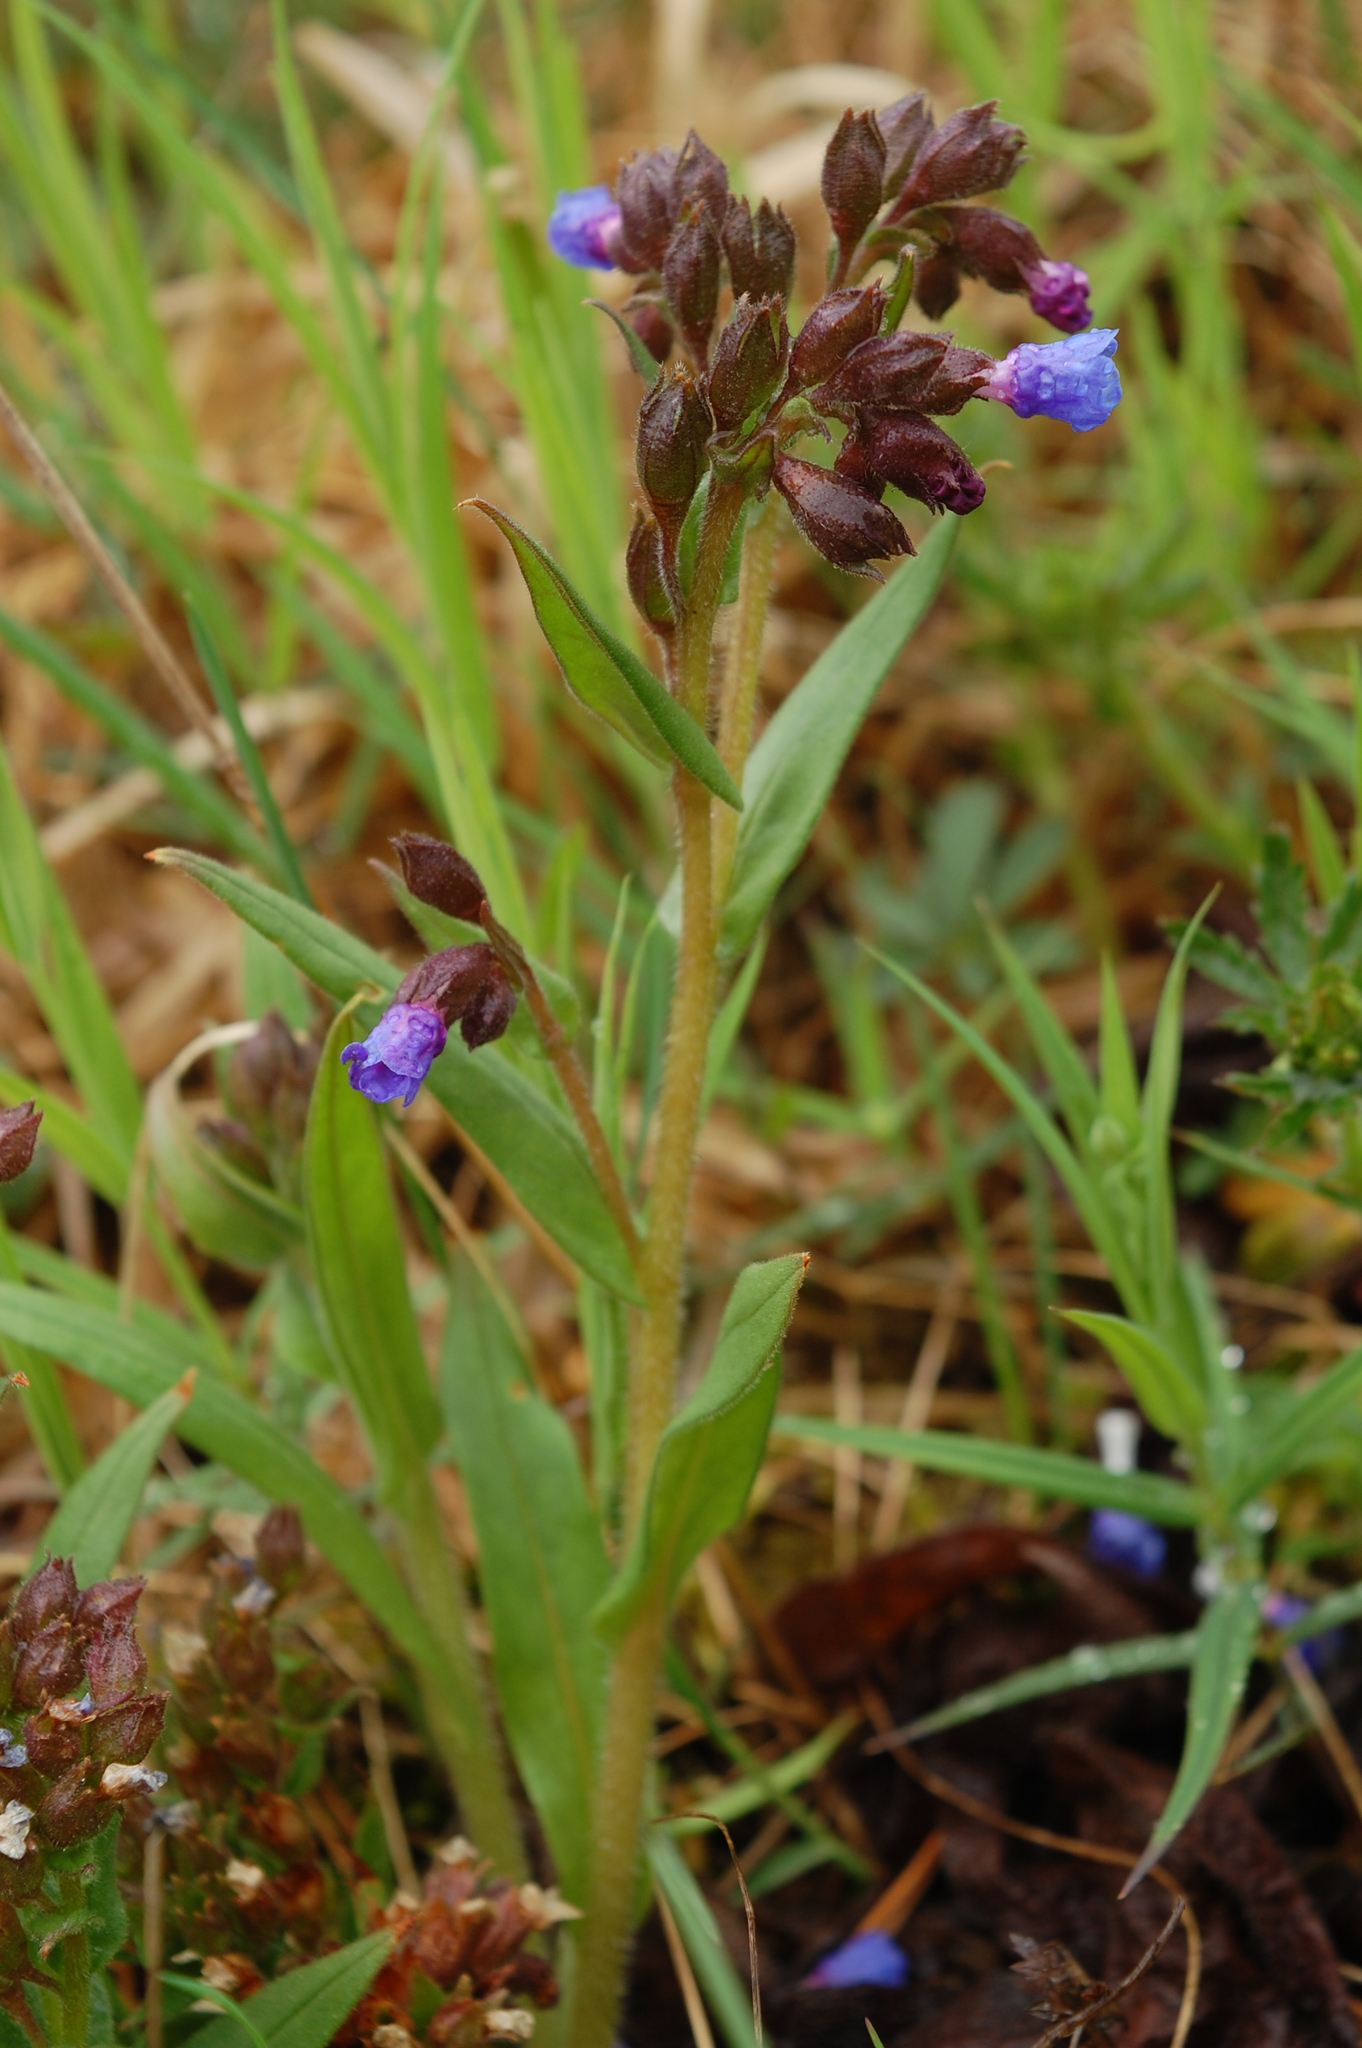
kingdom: Plantae
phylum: Tracheophyta
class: Magnoliopsida
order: Boraginales
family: Boraginaceae
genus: Pulmonaria
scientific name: Pulmonaria angustifolia
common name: Blue cowslip
